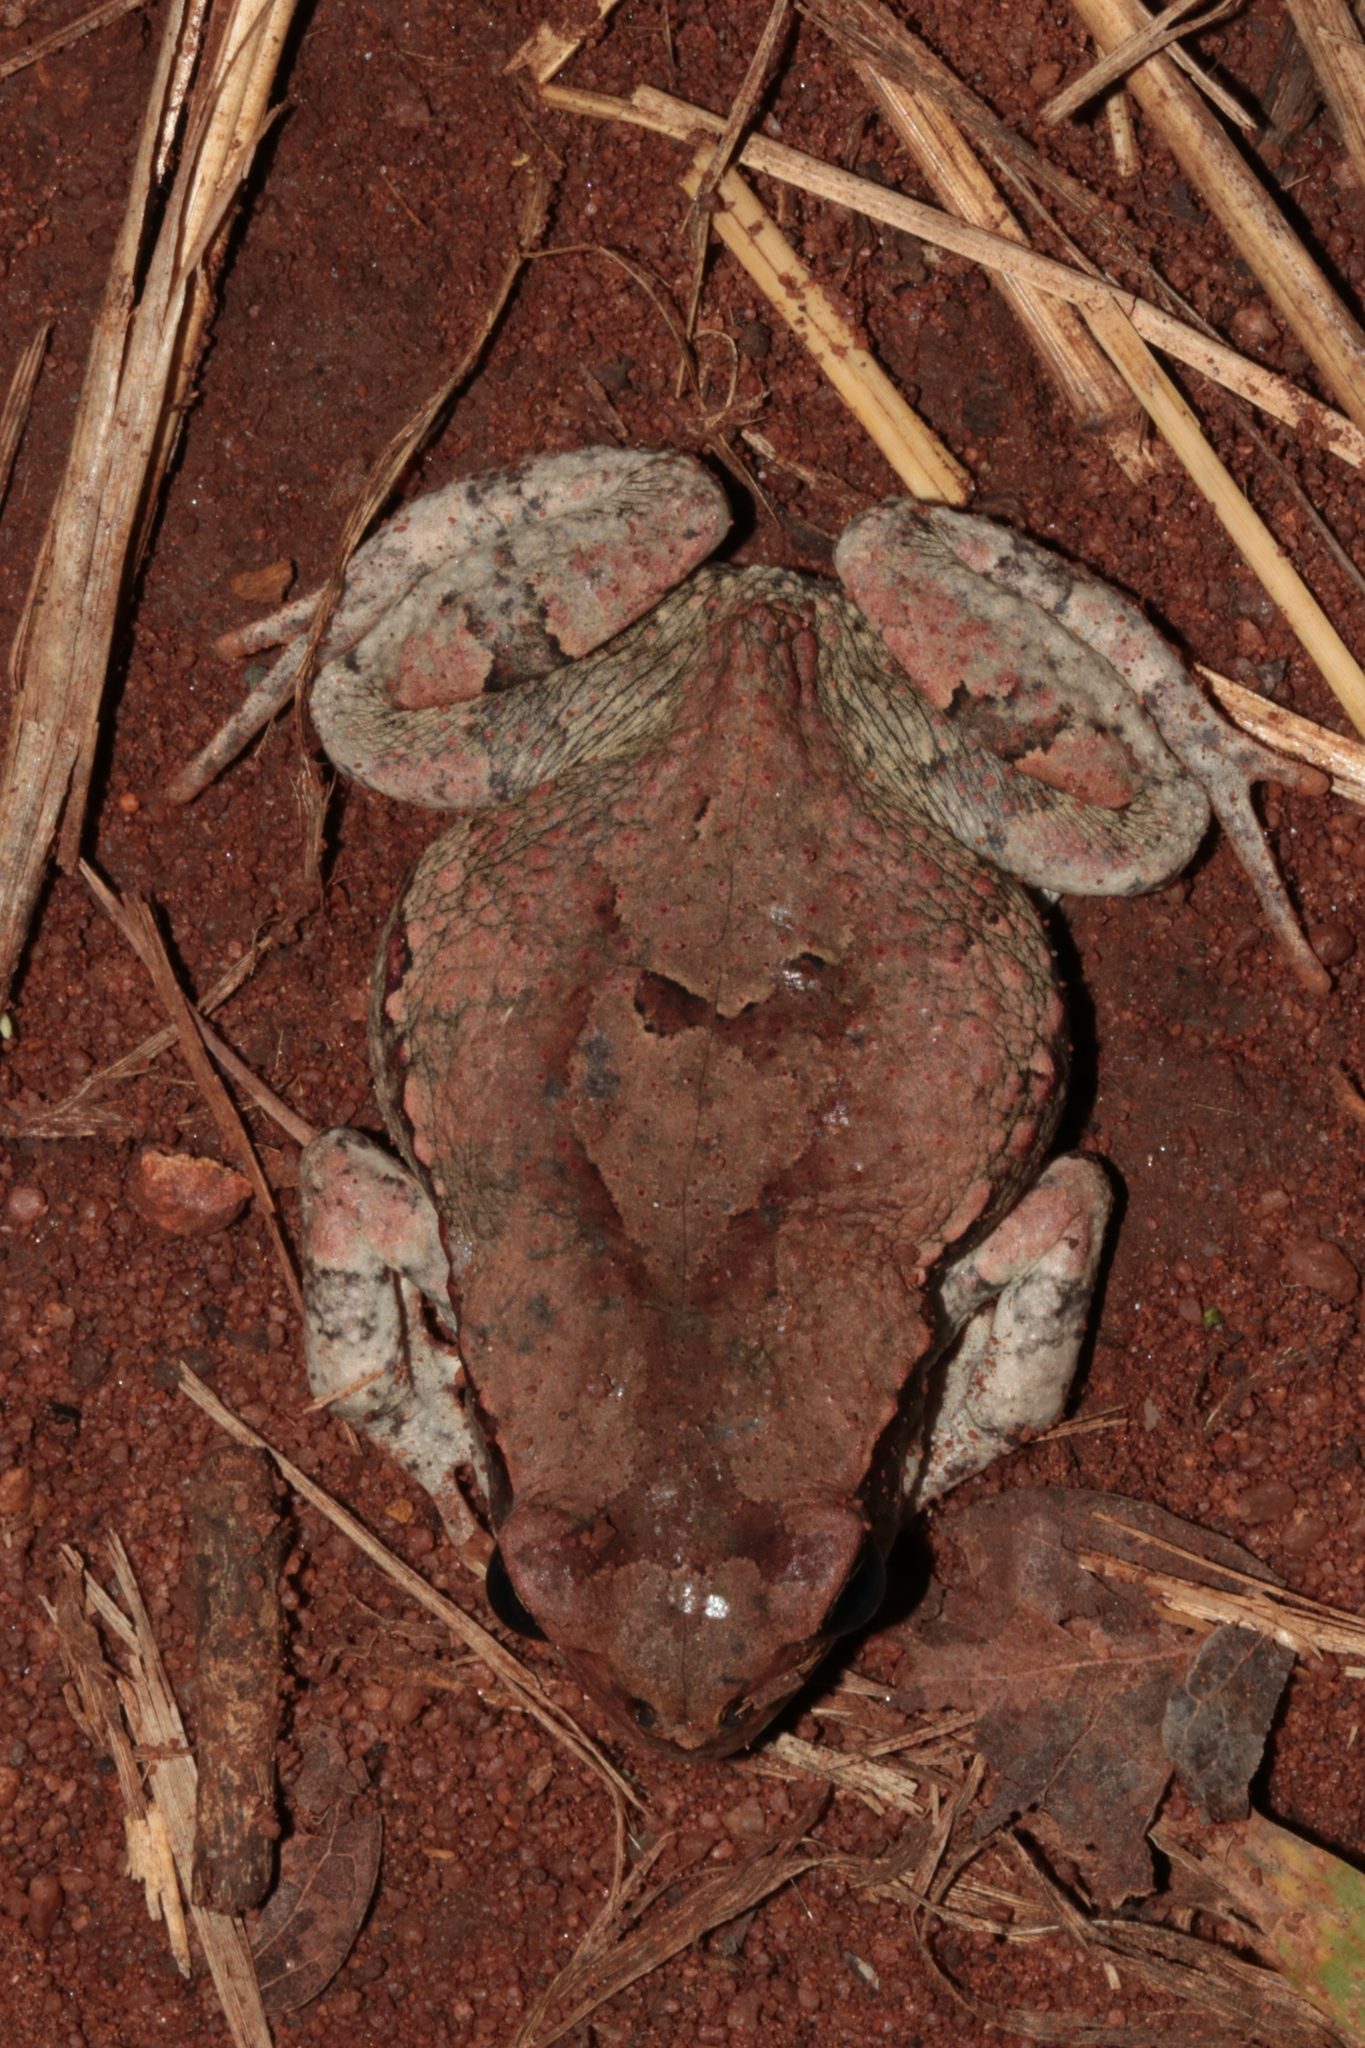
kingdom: Animalia
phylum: Chordata
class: Amphibia
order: Anura
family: Bufonidae
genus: Schismaderma
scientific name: Schismaderma carens
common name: African split-skin toad
